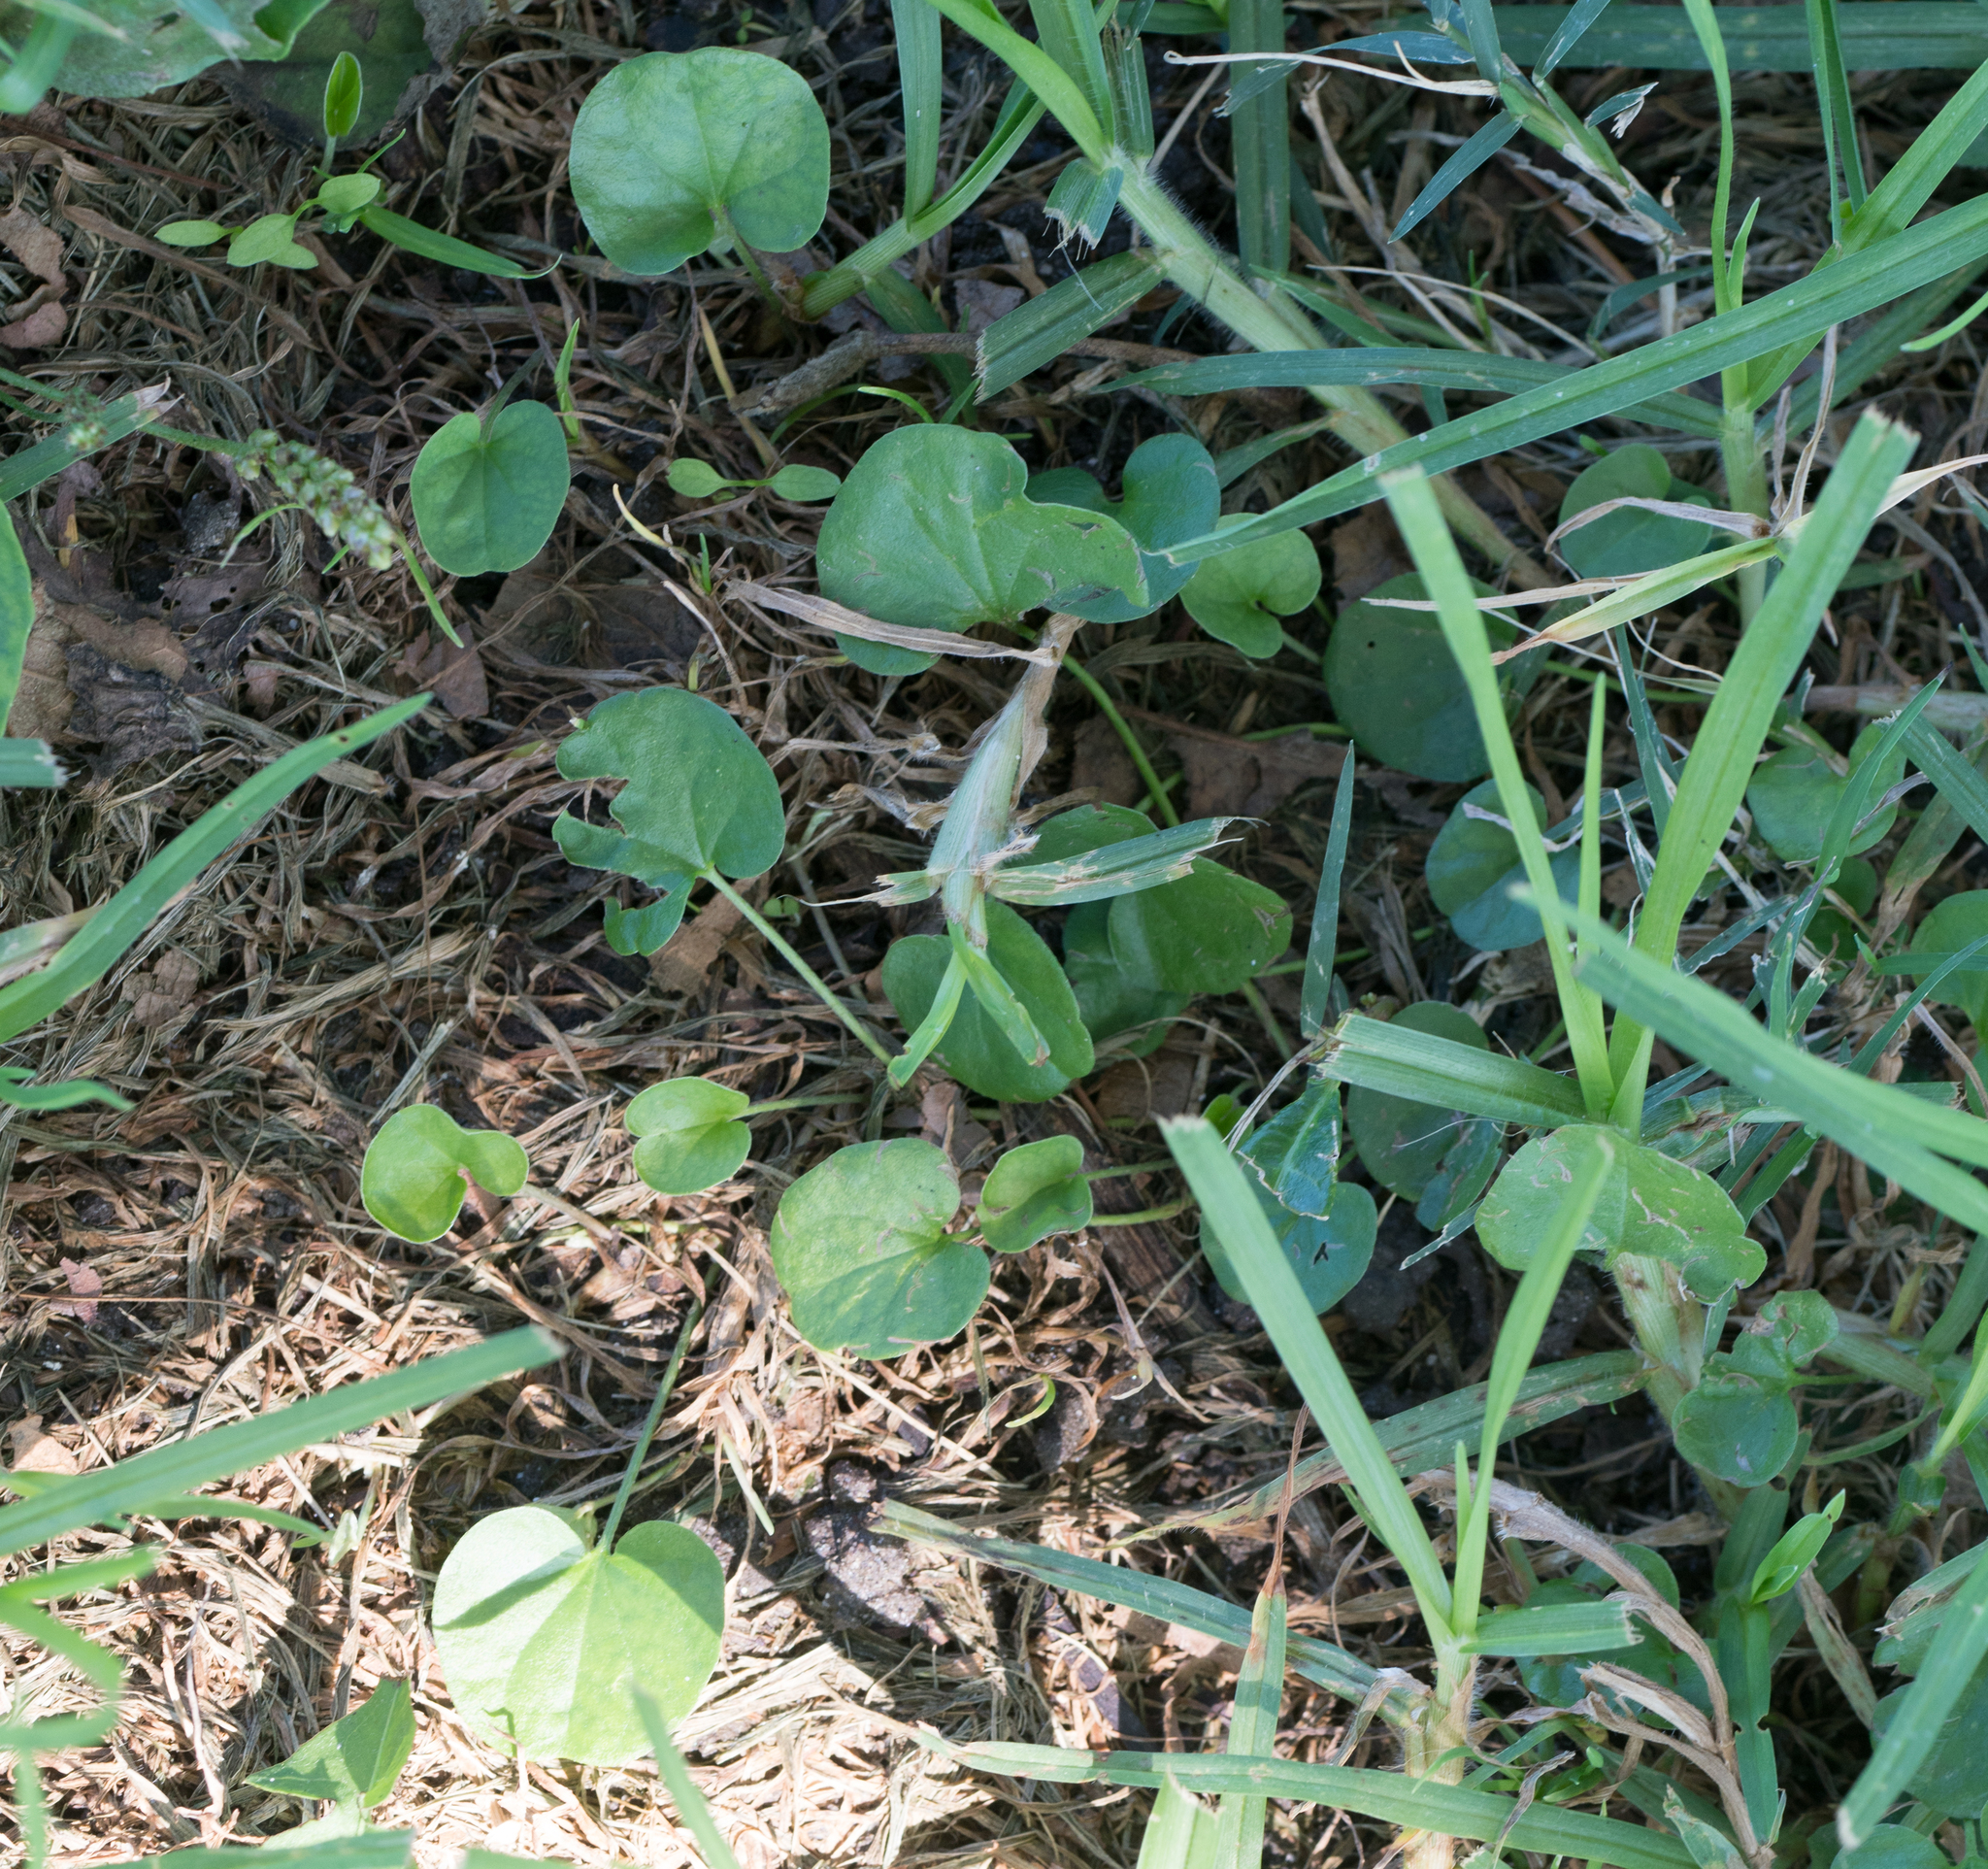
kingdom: Plantae
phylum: Tracheophyta
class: Magnoliopsida
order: Solanales
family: Convolvulaceae
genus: Dichondra
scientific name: Dichondra micrantha
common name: Kidneyweed
